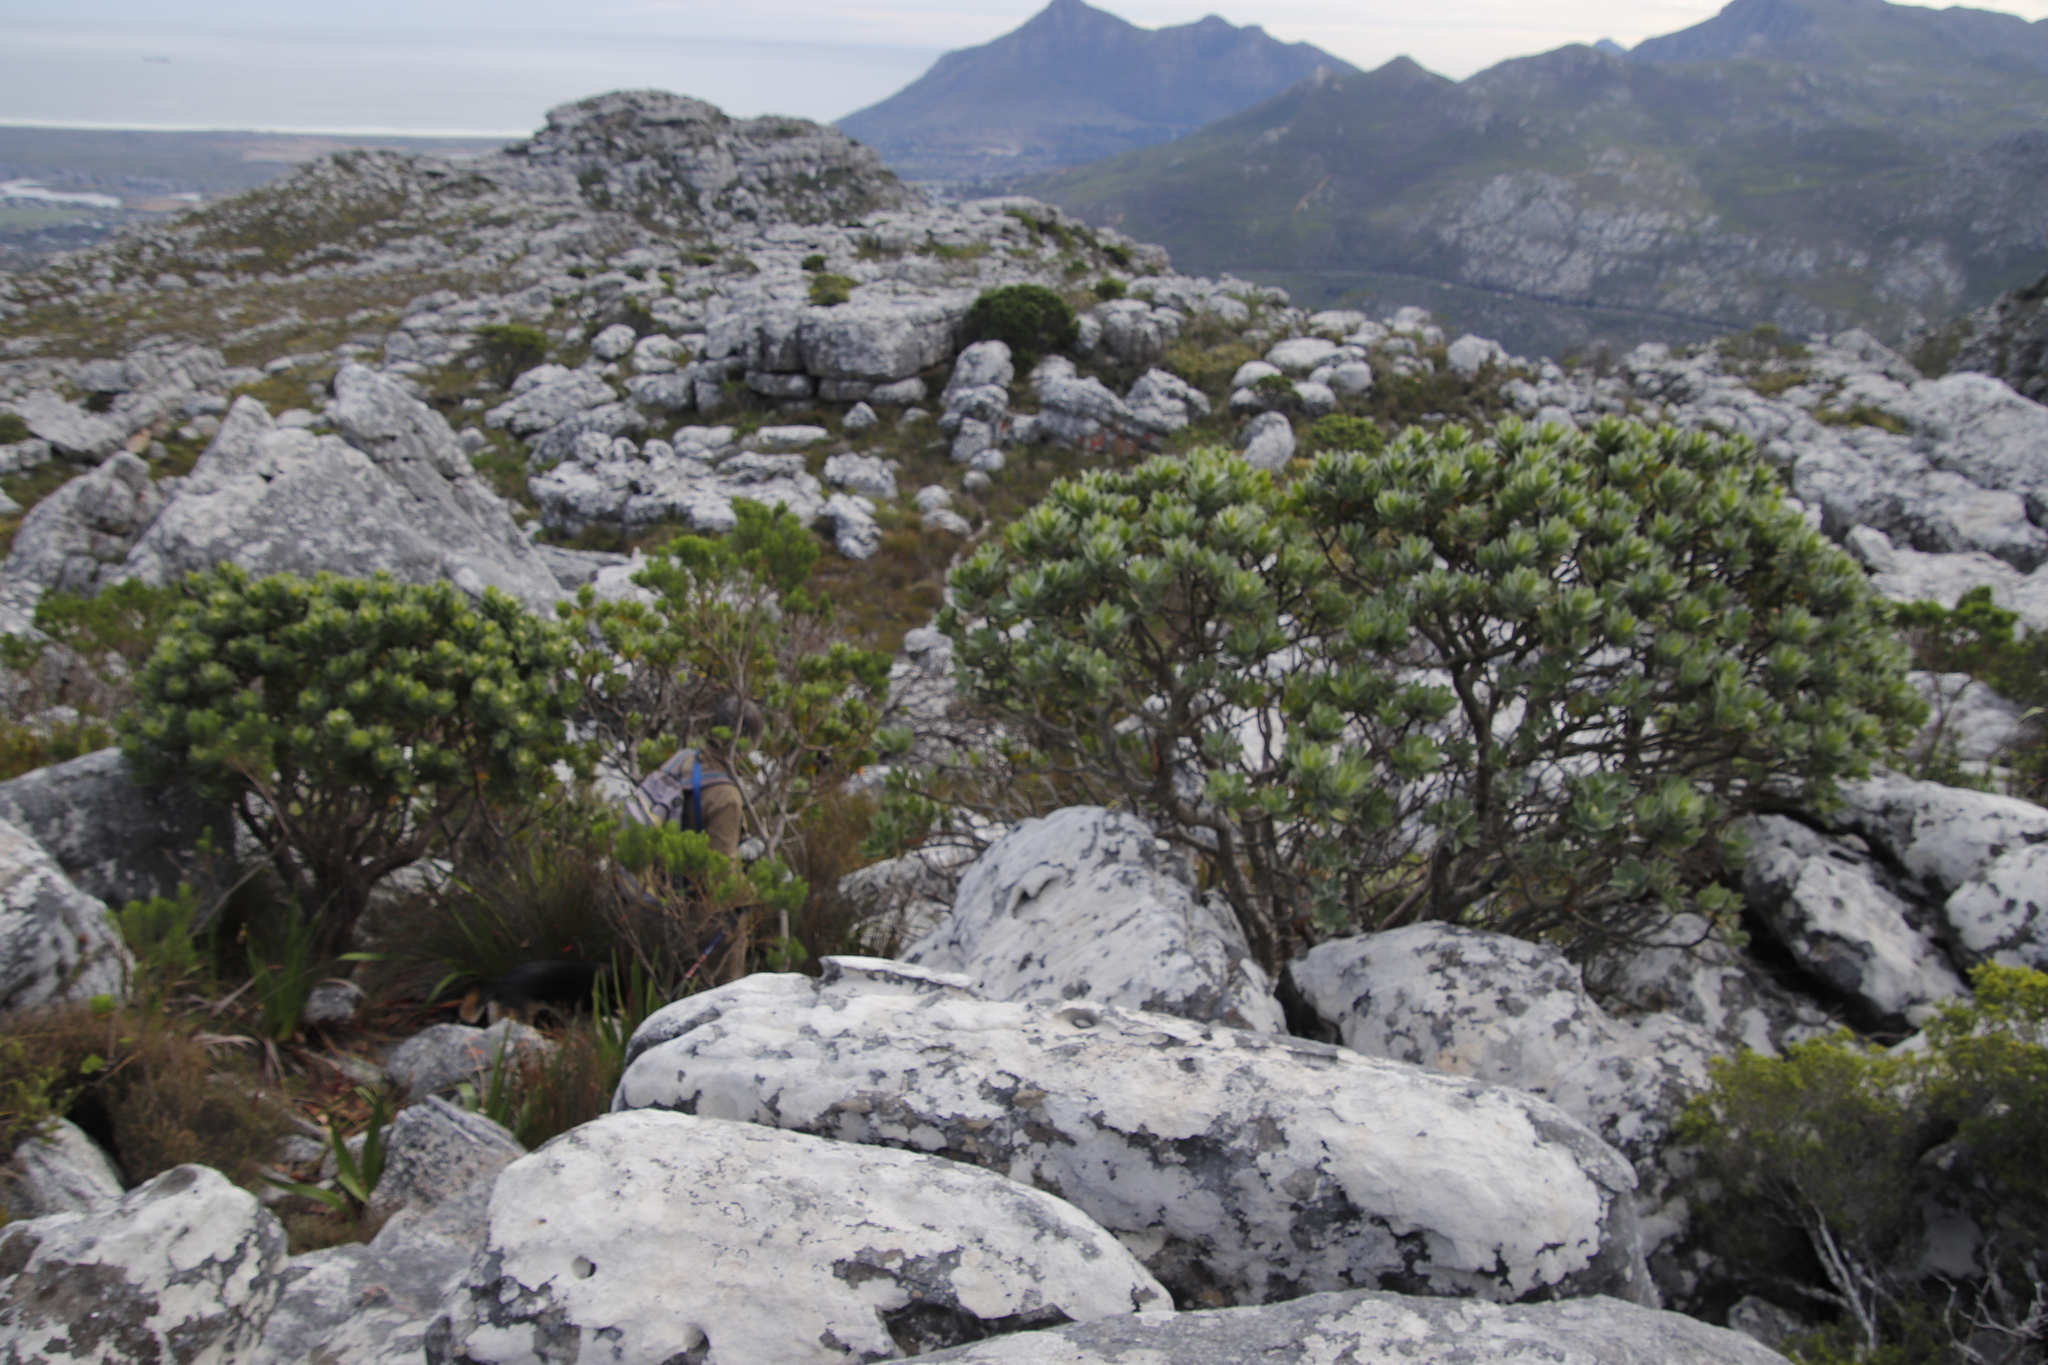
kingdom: Plantae
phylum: Tracheophyta
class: Magnoliopsida
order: Proteales
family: Proteaceae
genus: Leucospermum
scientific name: Leucospermum conocarpodendron
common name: Tree pincushion
